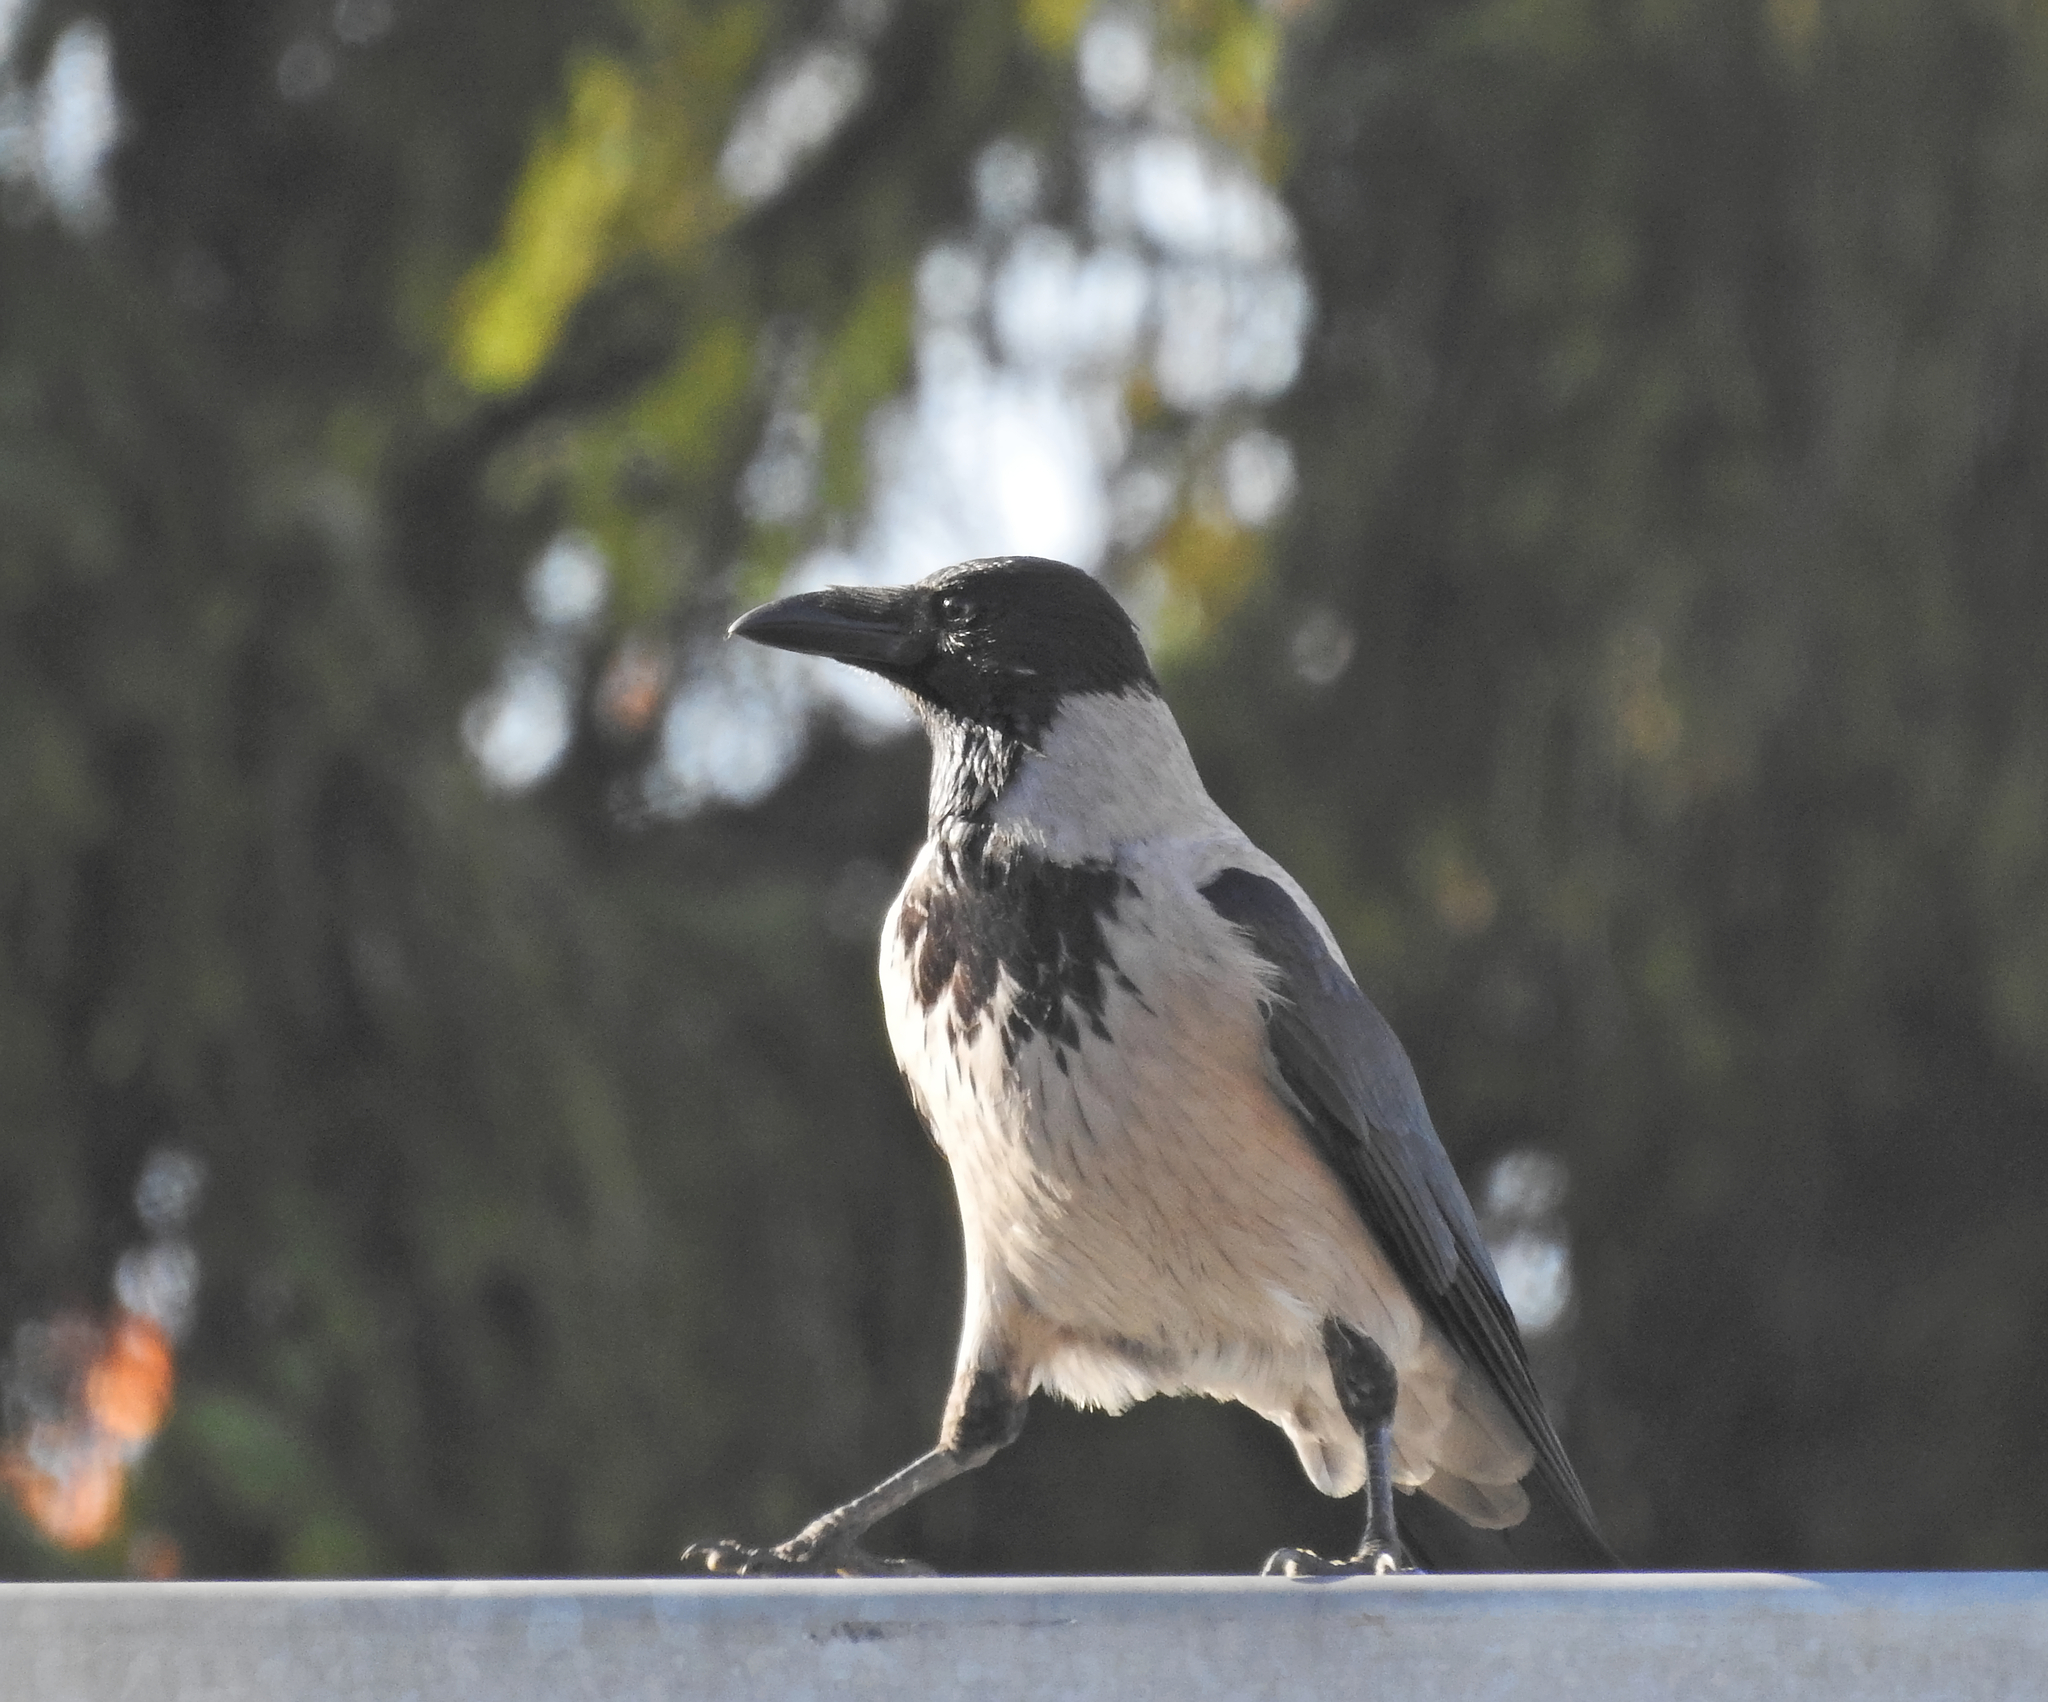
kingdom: Animalia
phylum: Chordata
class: Aves
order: Passeriformes
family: Corvidae
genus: Corvus
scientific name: Corvus cornix
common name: Hooded crow
